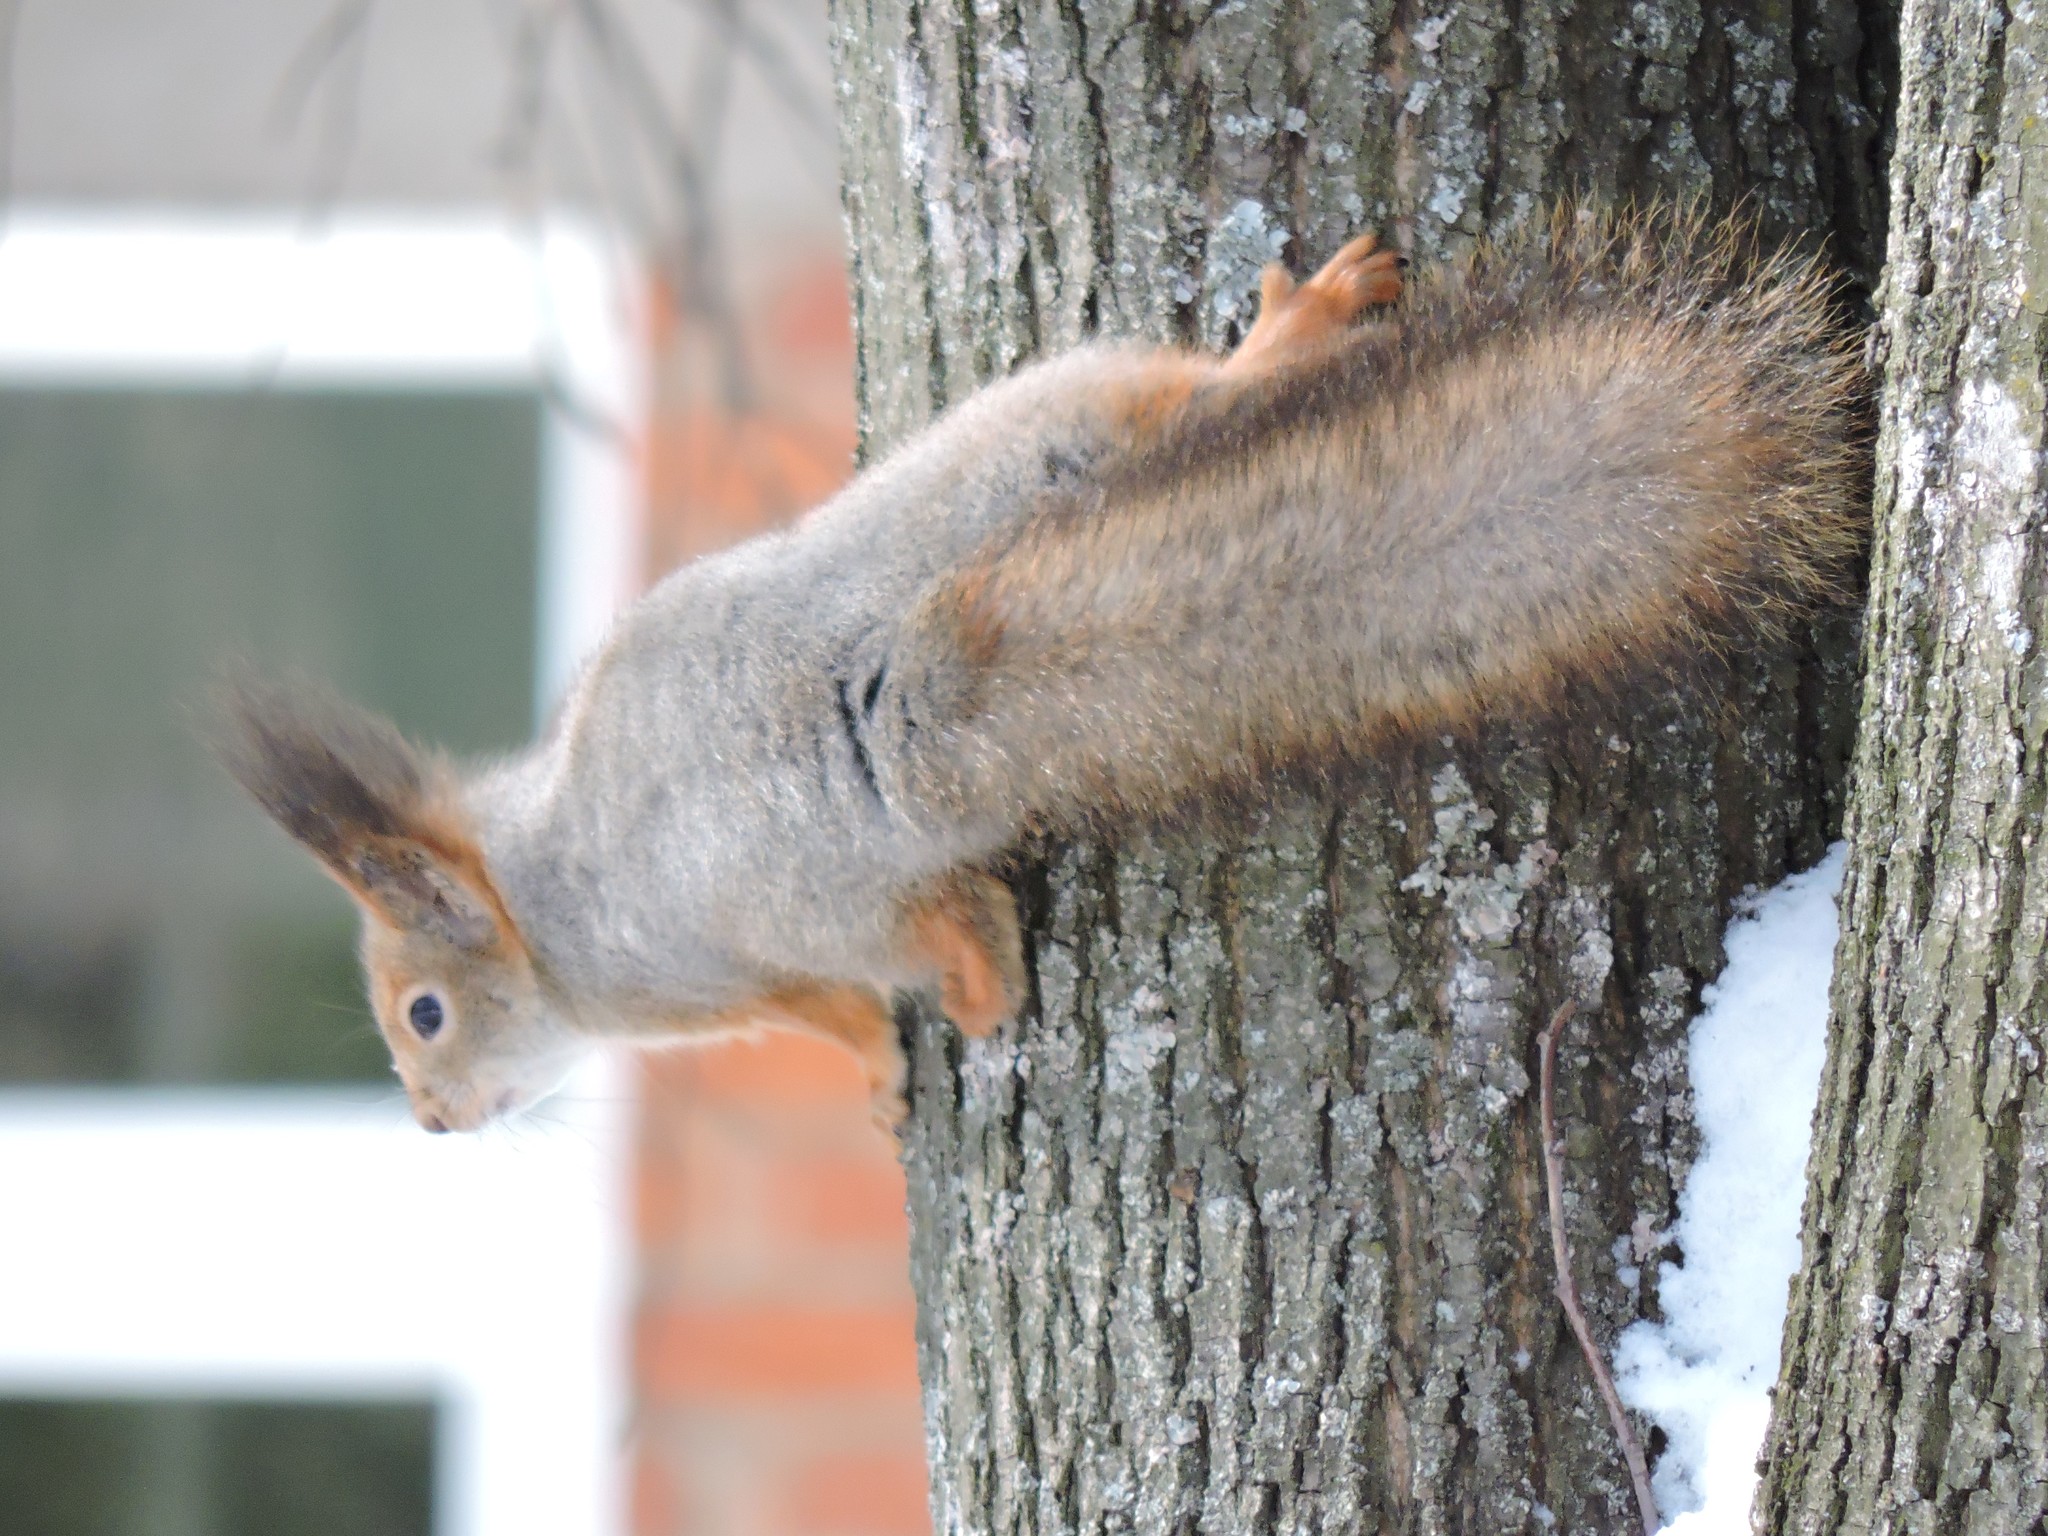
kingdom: Animalia
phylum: Chordata
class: Mammalia
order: Rodentia
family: Sciuridae
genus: Sciurus
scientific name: Sciurus vulgaris
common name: Eurasian red squirrel
